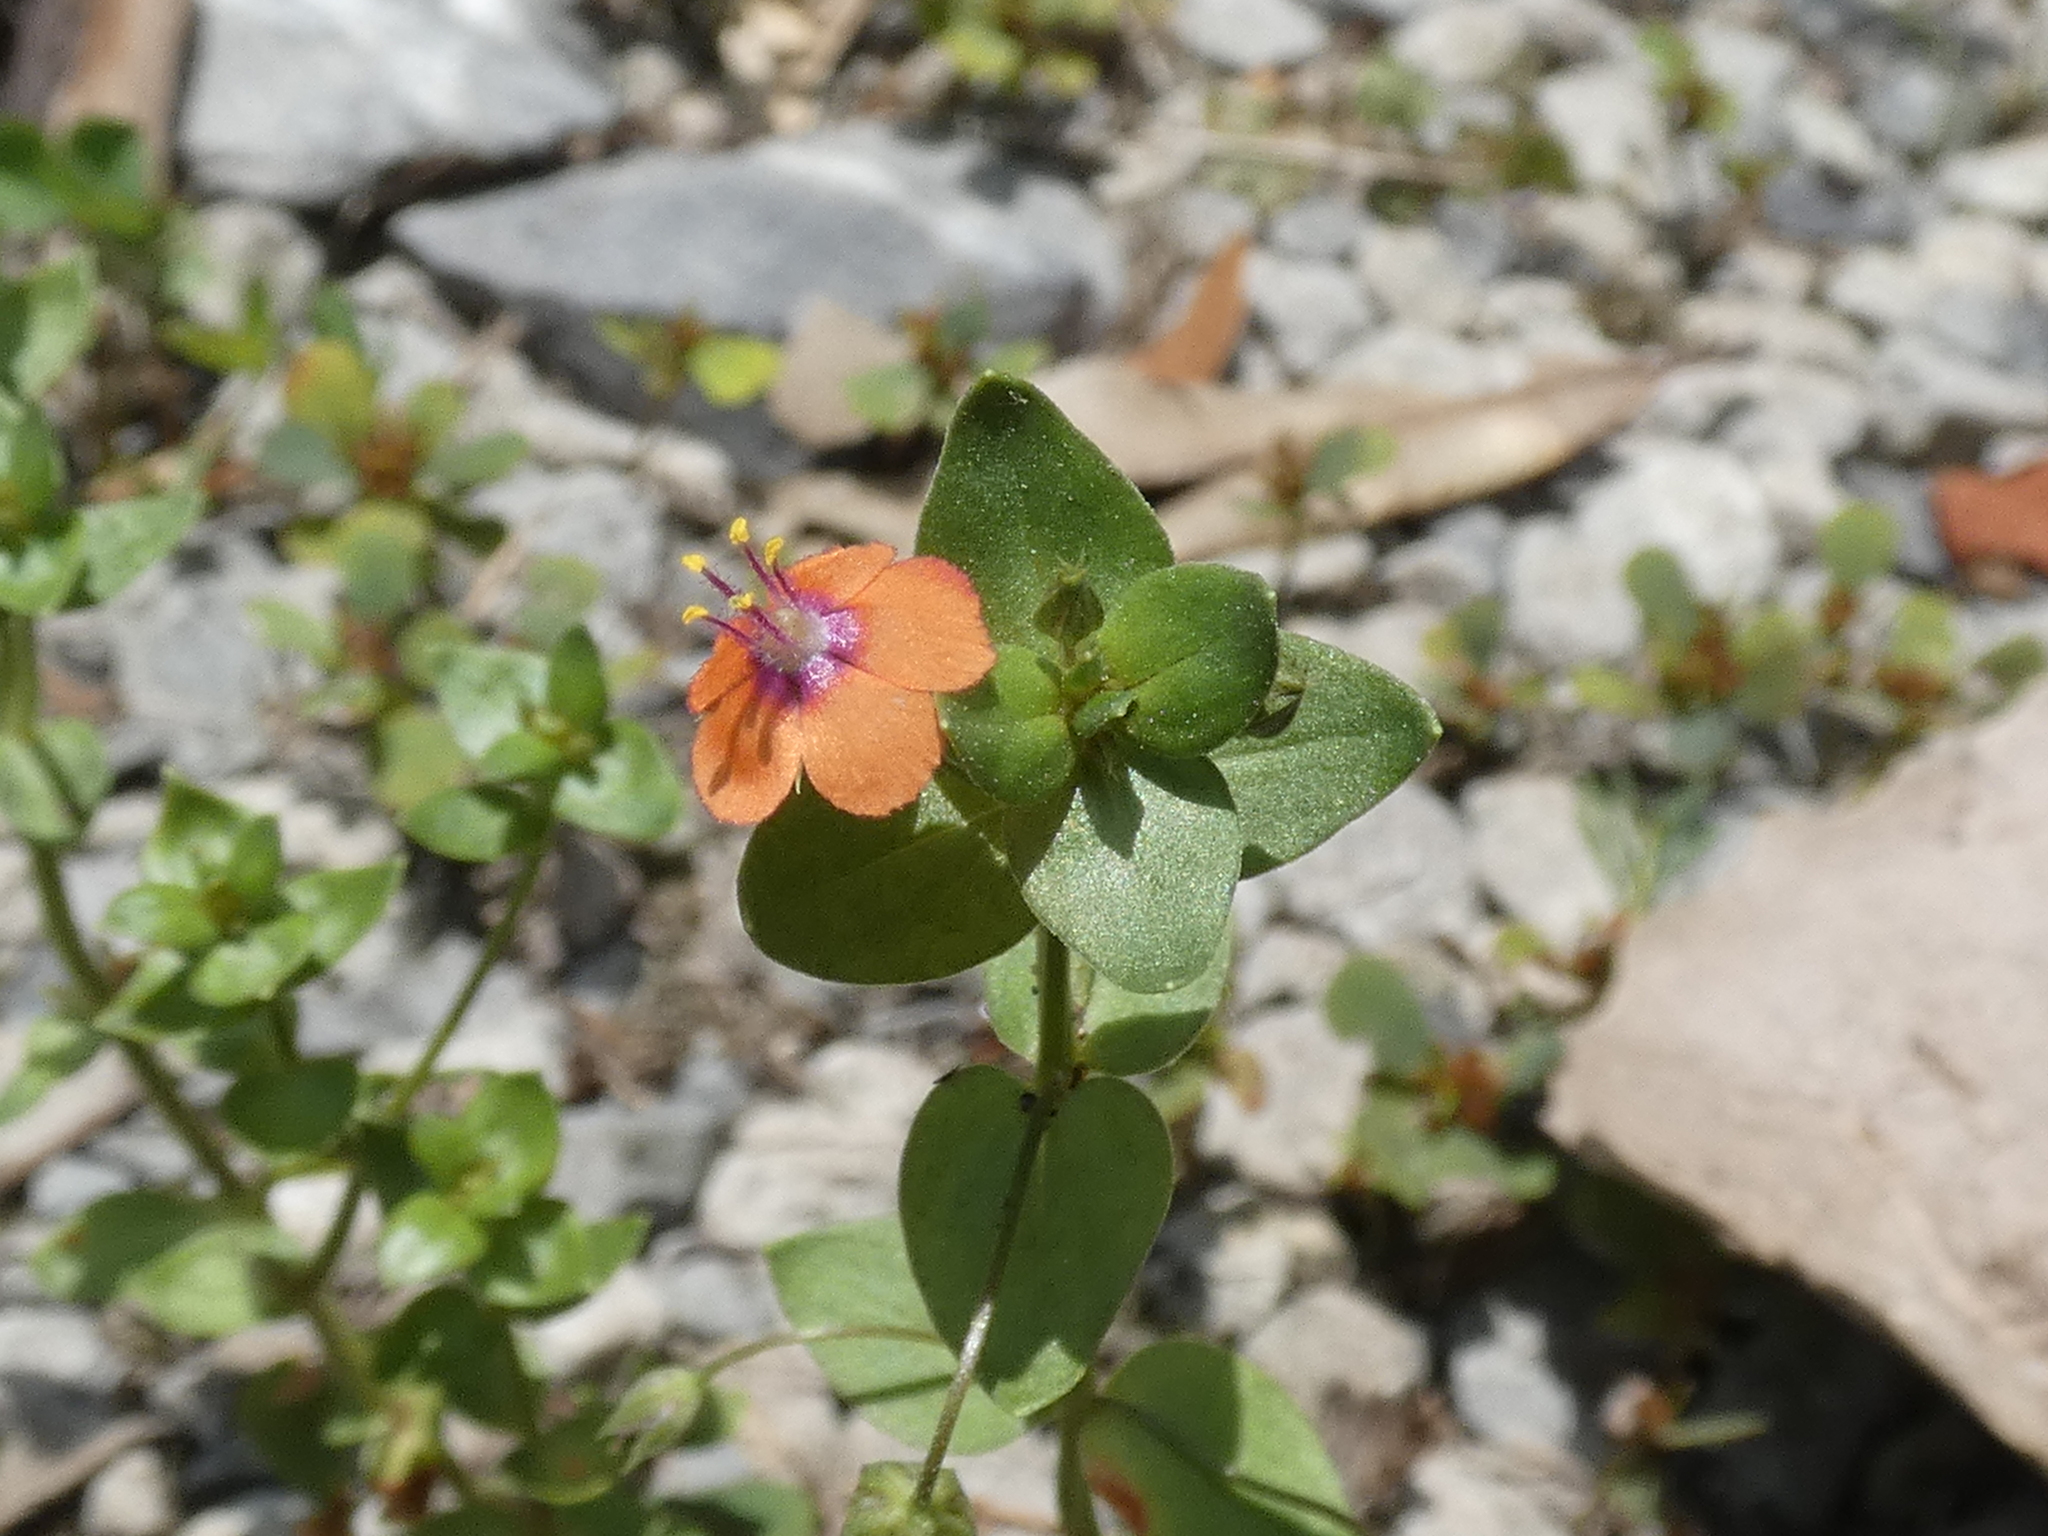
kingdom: Plantae
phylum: Tracheophyta
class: Magnoliopsida
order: Ericales
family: Primulaceae
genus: Lysimachia
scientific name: Lysimachia arvensis
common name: Scarlet pimpernel
